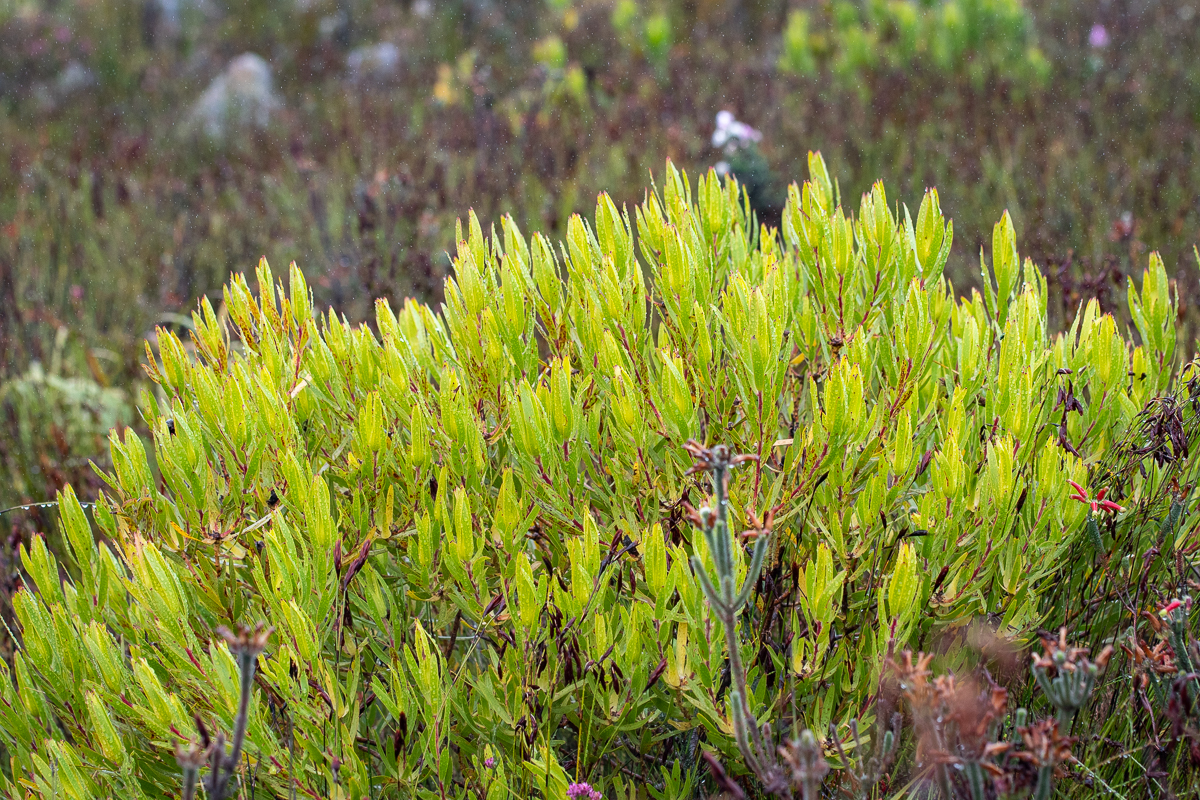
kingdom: Plantae
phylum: Tracheophyta
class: Magnoliopsida
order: Proteales
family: Proteaceae
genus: Leucadendron
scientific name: Leucadendron laureolum
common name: Golden sunshinebush
